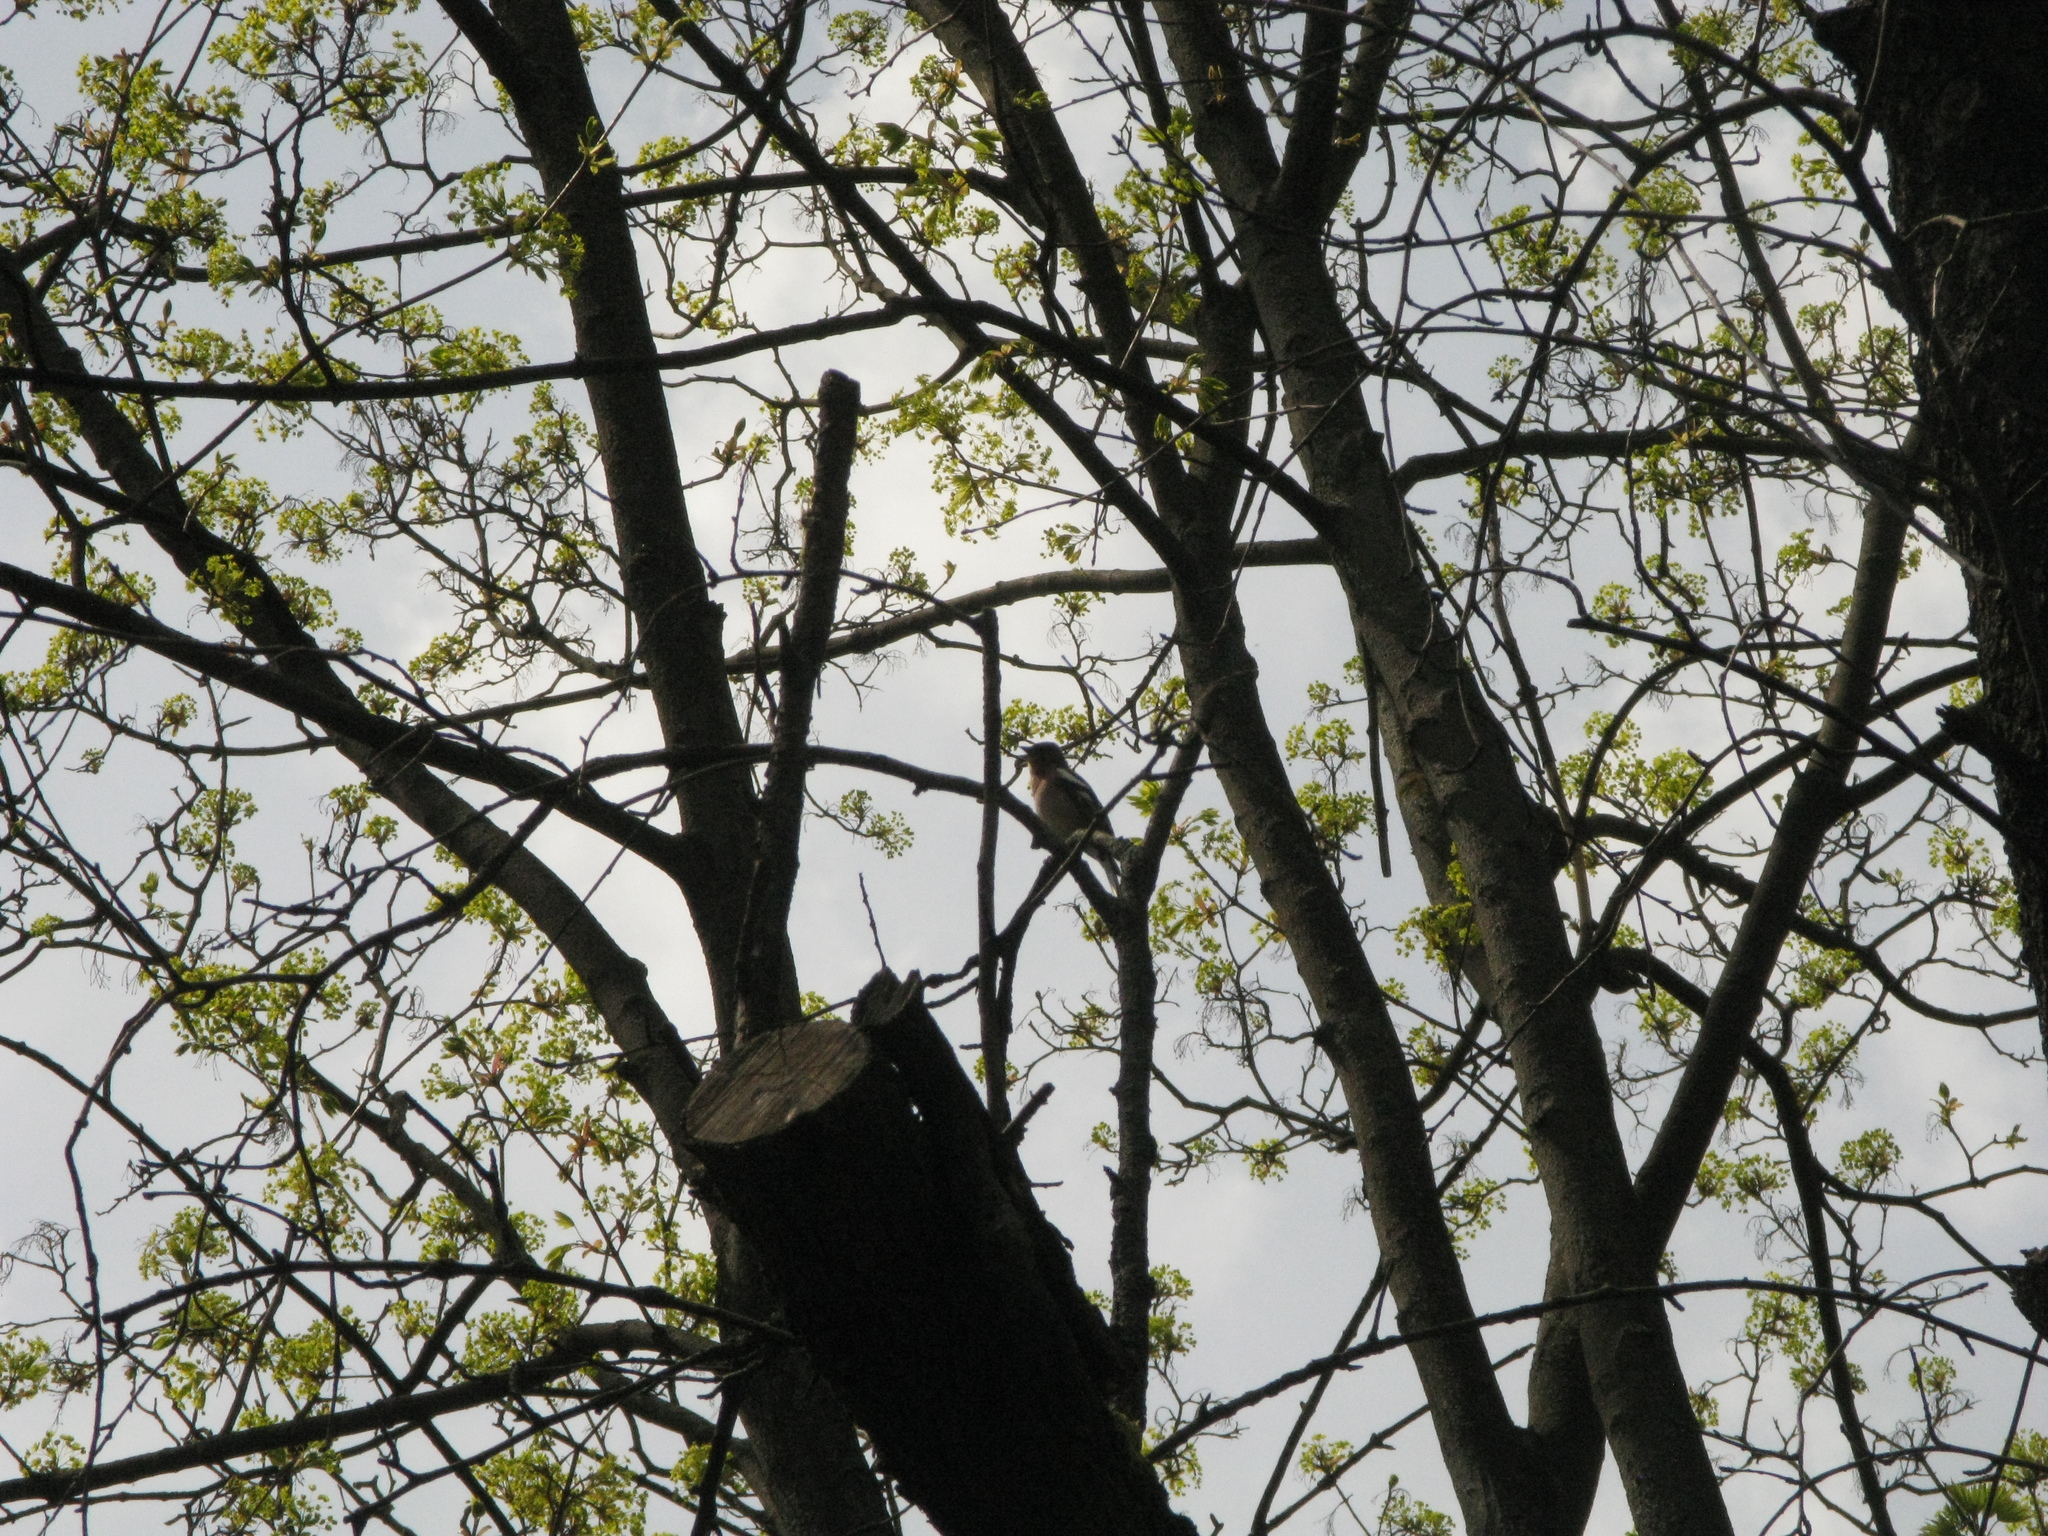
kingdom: Animalia
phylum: Chordata
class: Aves
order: Passeriformes
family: Fringillidae
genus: Fringilla
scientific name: Fringilla coelebs
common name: Common chaffinch
